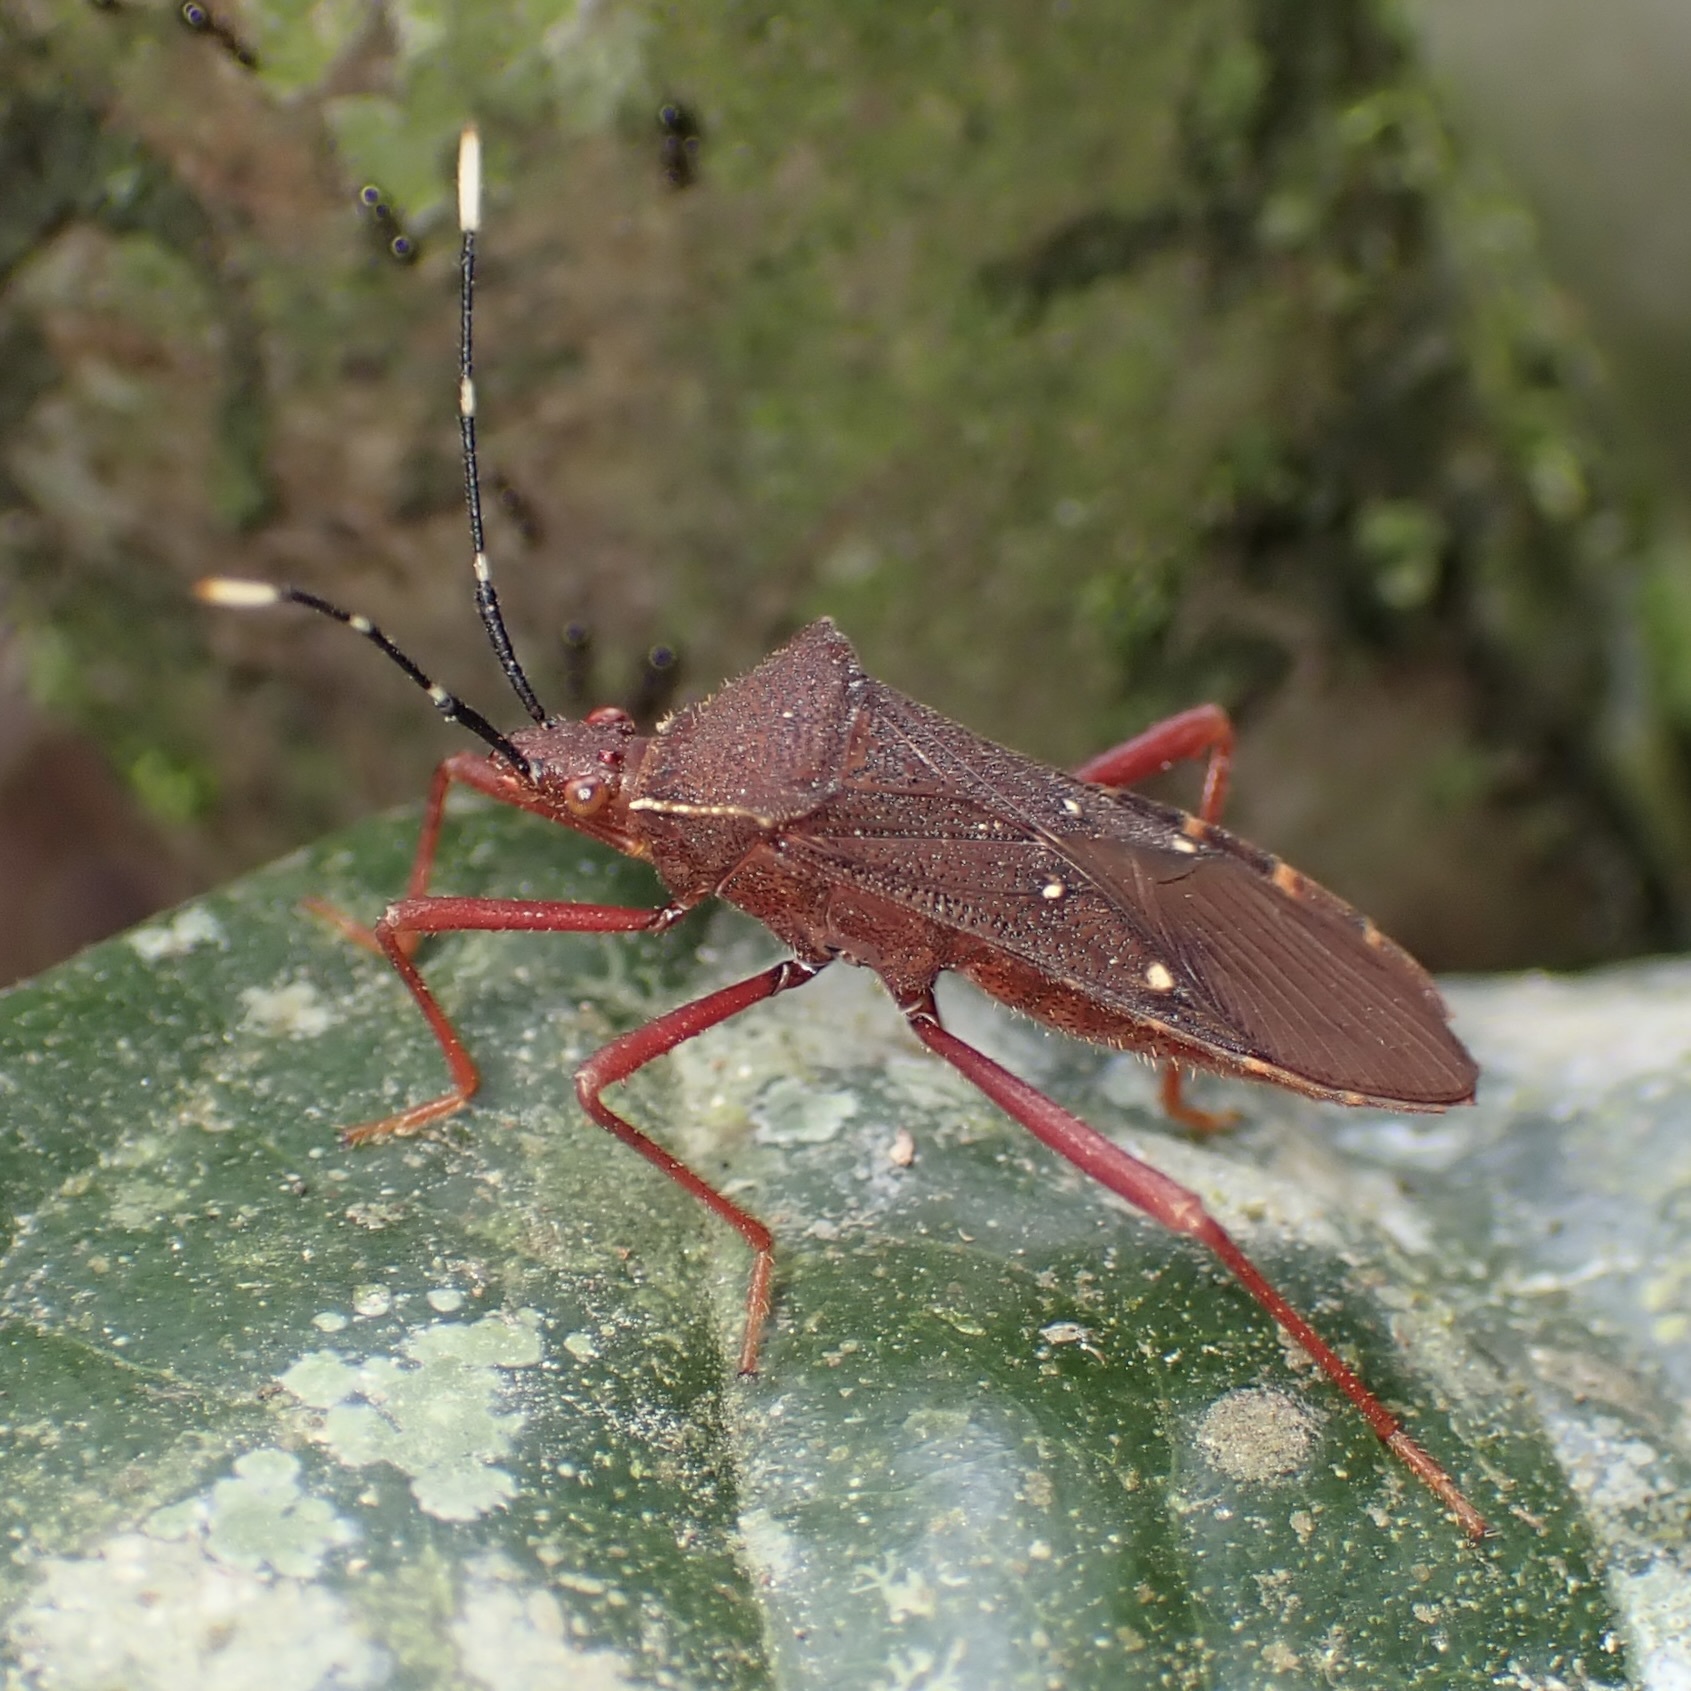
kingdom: Animalia
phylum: Arthropoda
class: Insecta
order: Hemiptera
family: Coreidae
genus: Leptoscelis
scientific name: Leptoscelis quadrisignatus
